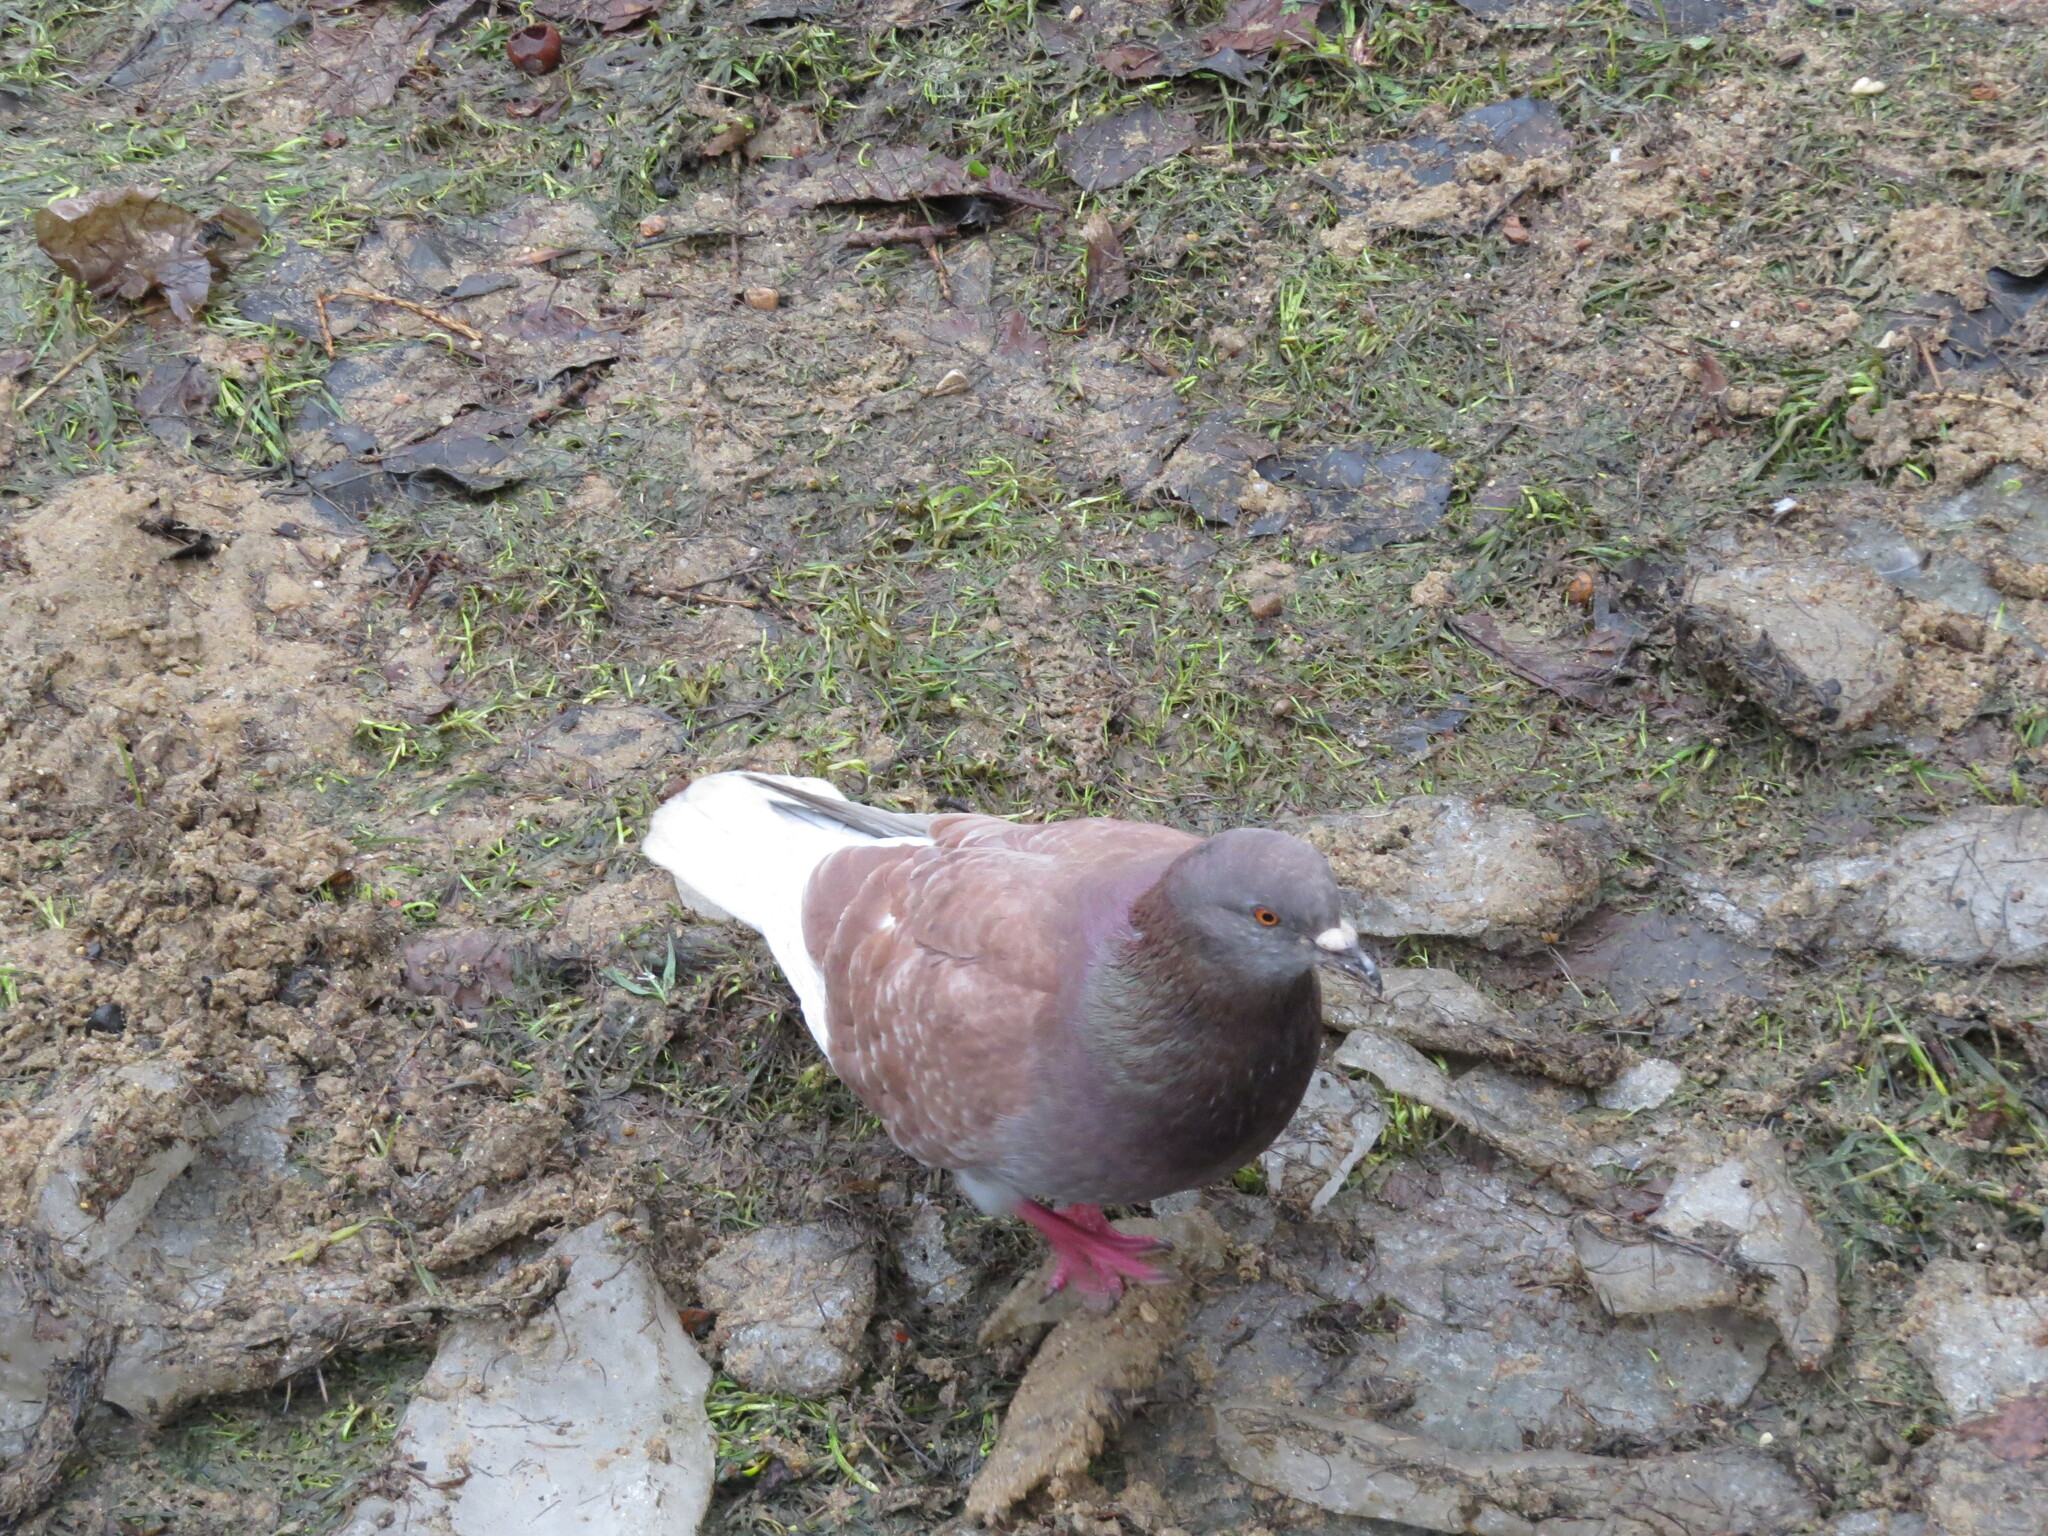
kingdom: Animalia
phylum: Chordata
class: Aves
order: Columbiformes
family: Columbidae
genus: Columba
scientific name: Columba livia
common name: Rock pigeon
